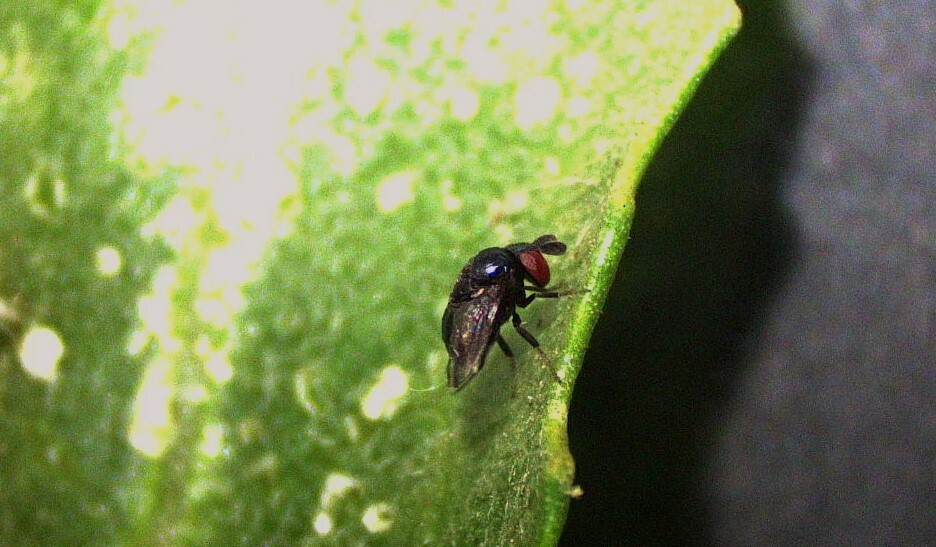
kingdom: Animalia
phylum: Arthropoda
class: Insecta
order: Diptera
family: Cryptochetidae
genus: Cryptochetum
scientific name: Cryptochetum iceryae
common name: Cottony cushion scale fly
